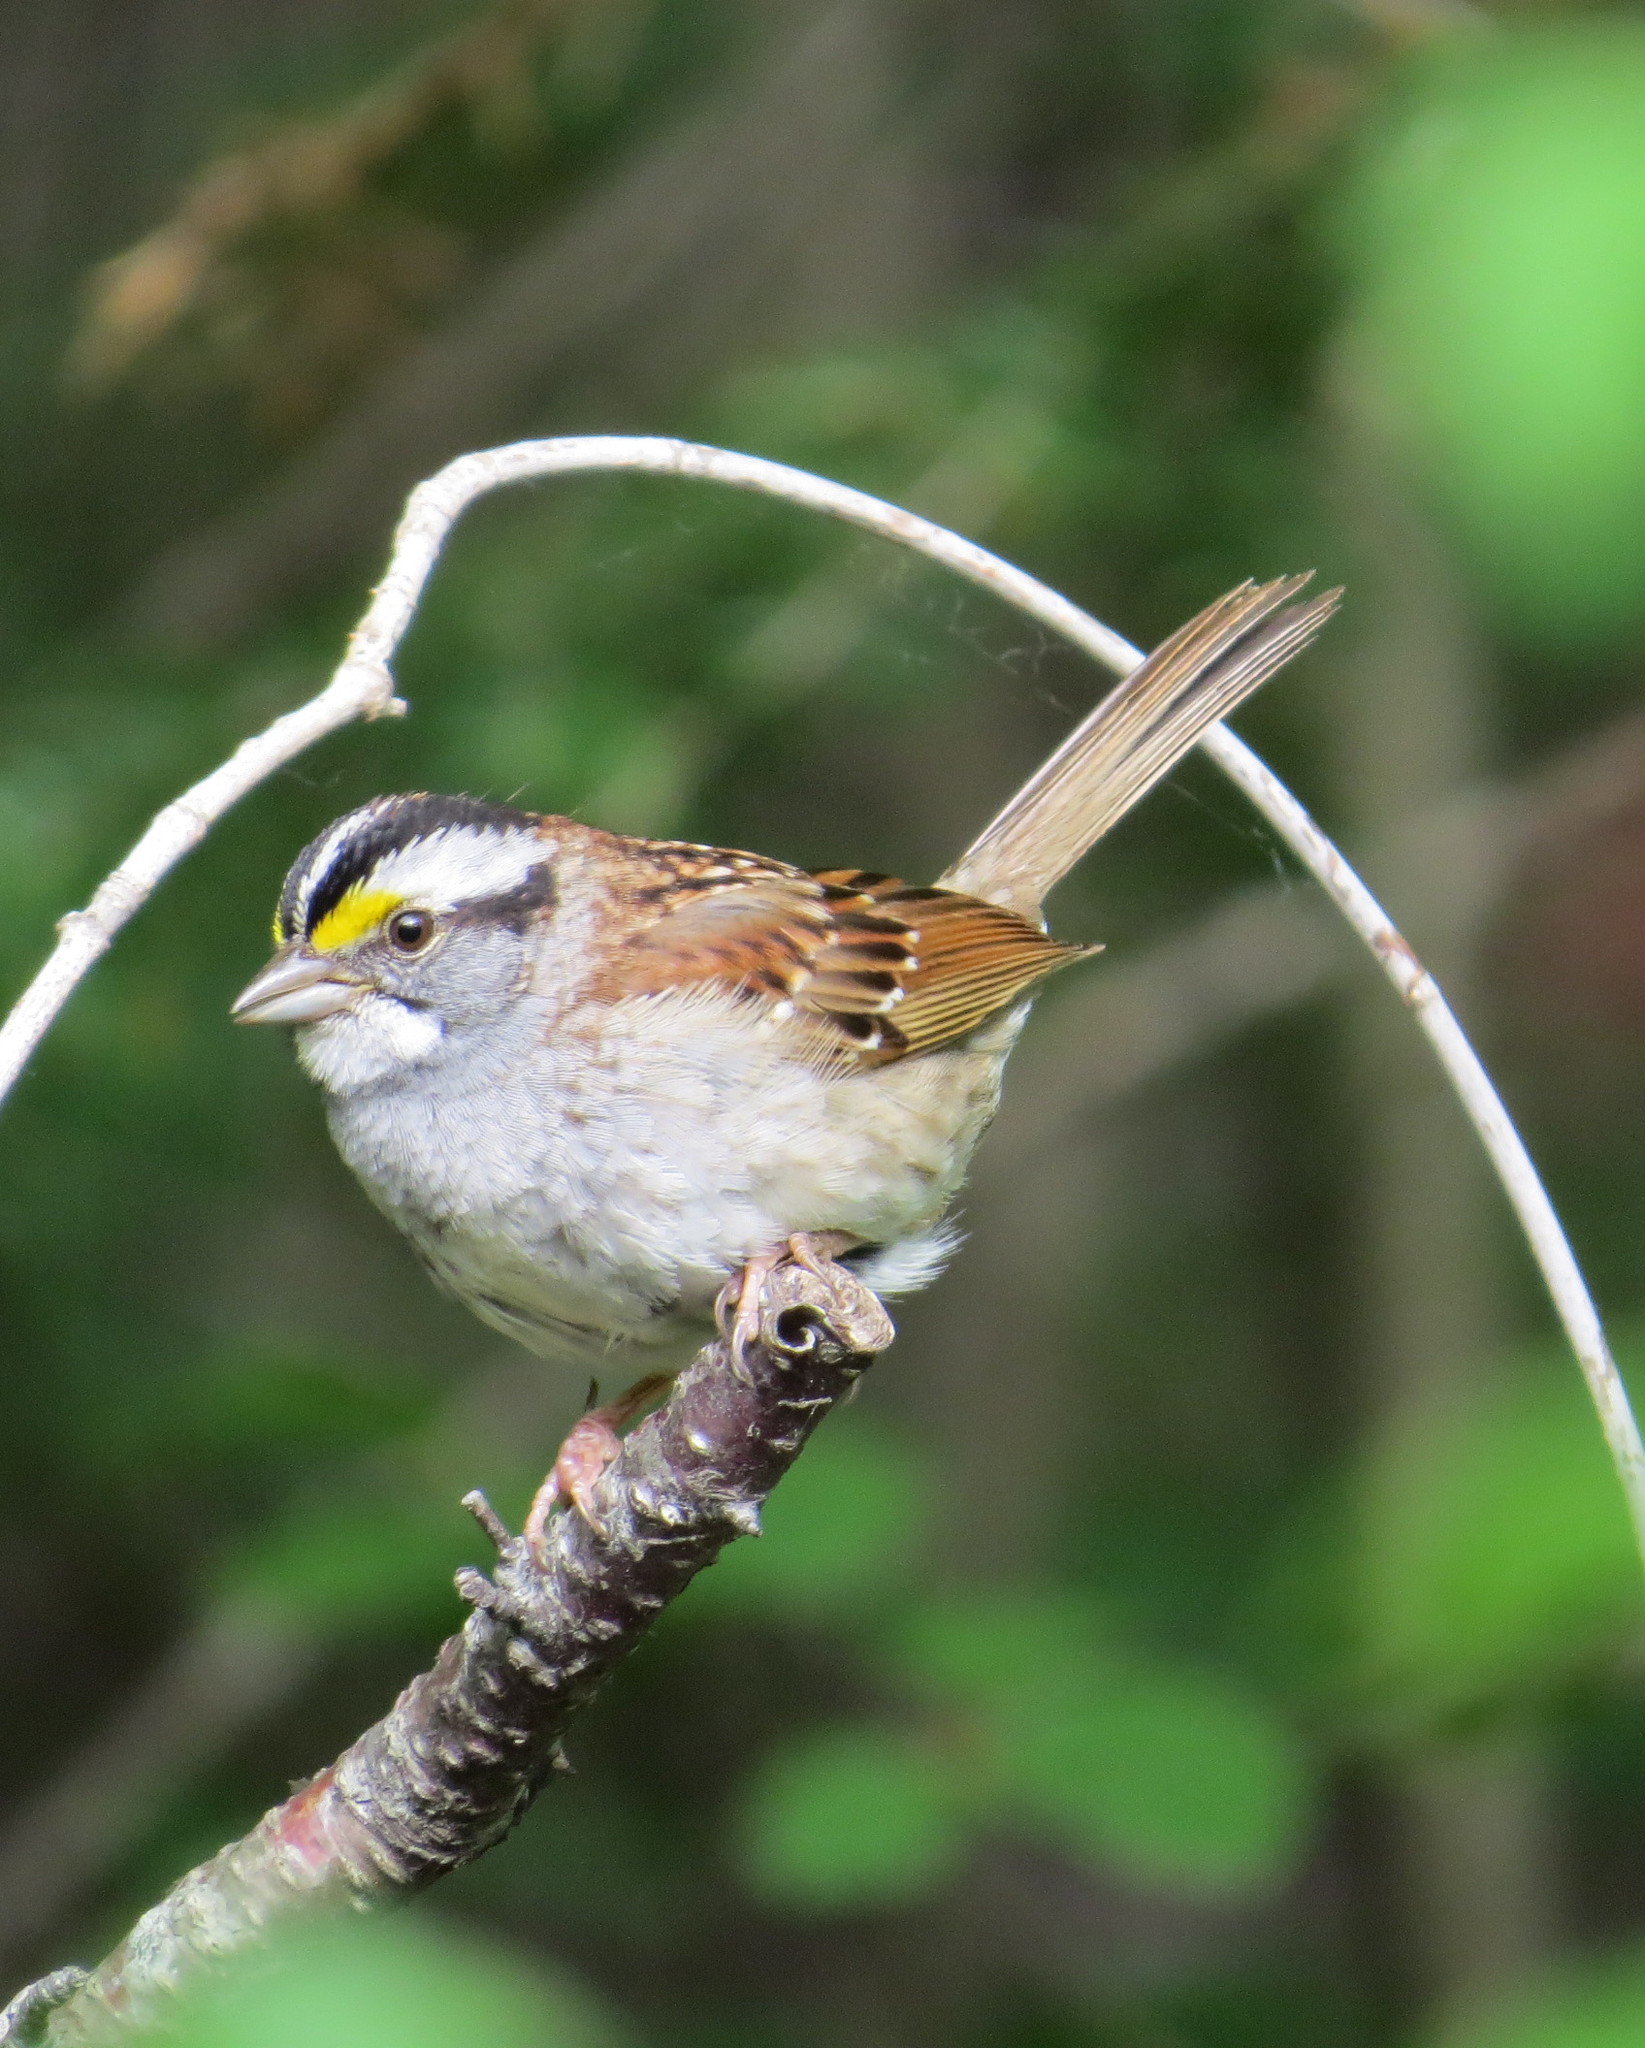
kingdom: Animalia
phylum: Chordata
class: Aves
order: Passeriformes
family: Passerellidae
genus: Zonotrichia
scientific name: Zonotrichia albicollis
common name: White-throated sparrow
